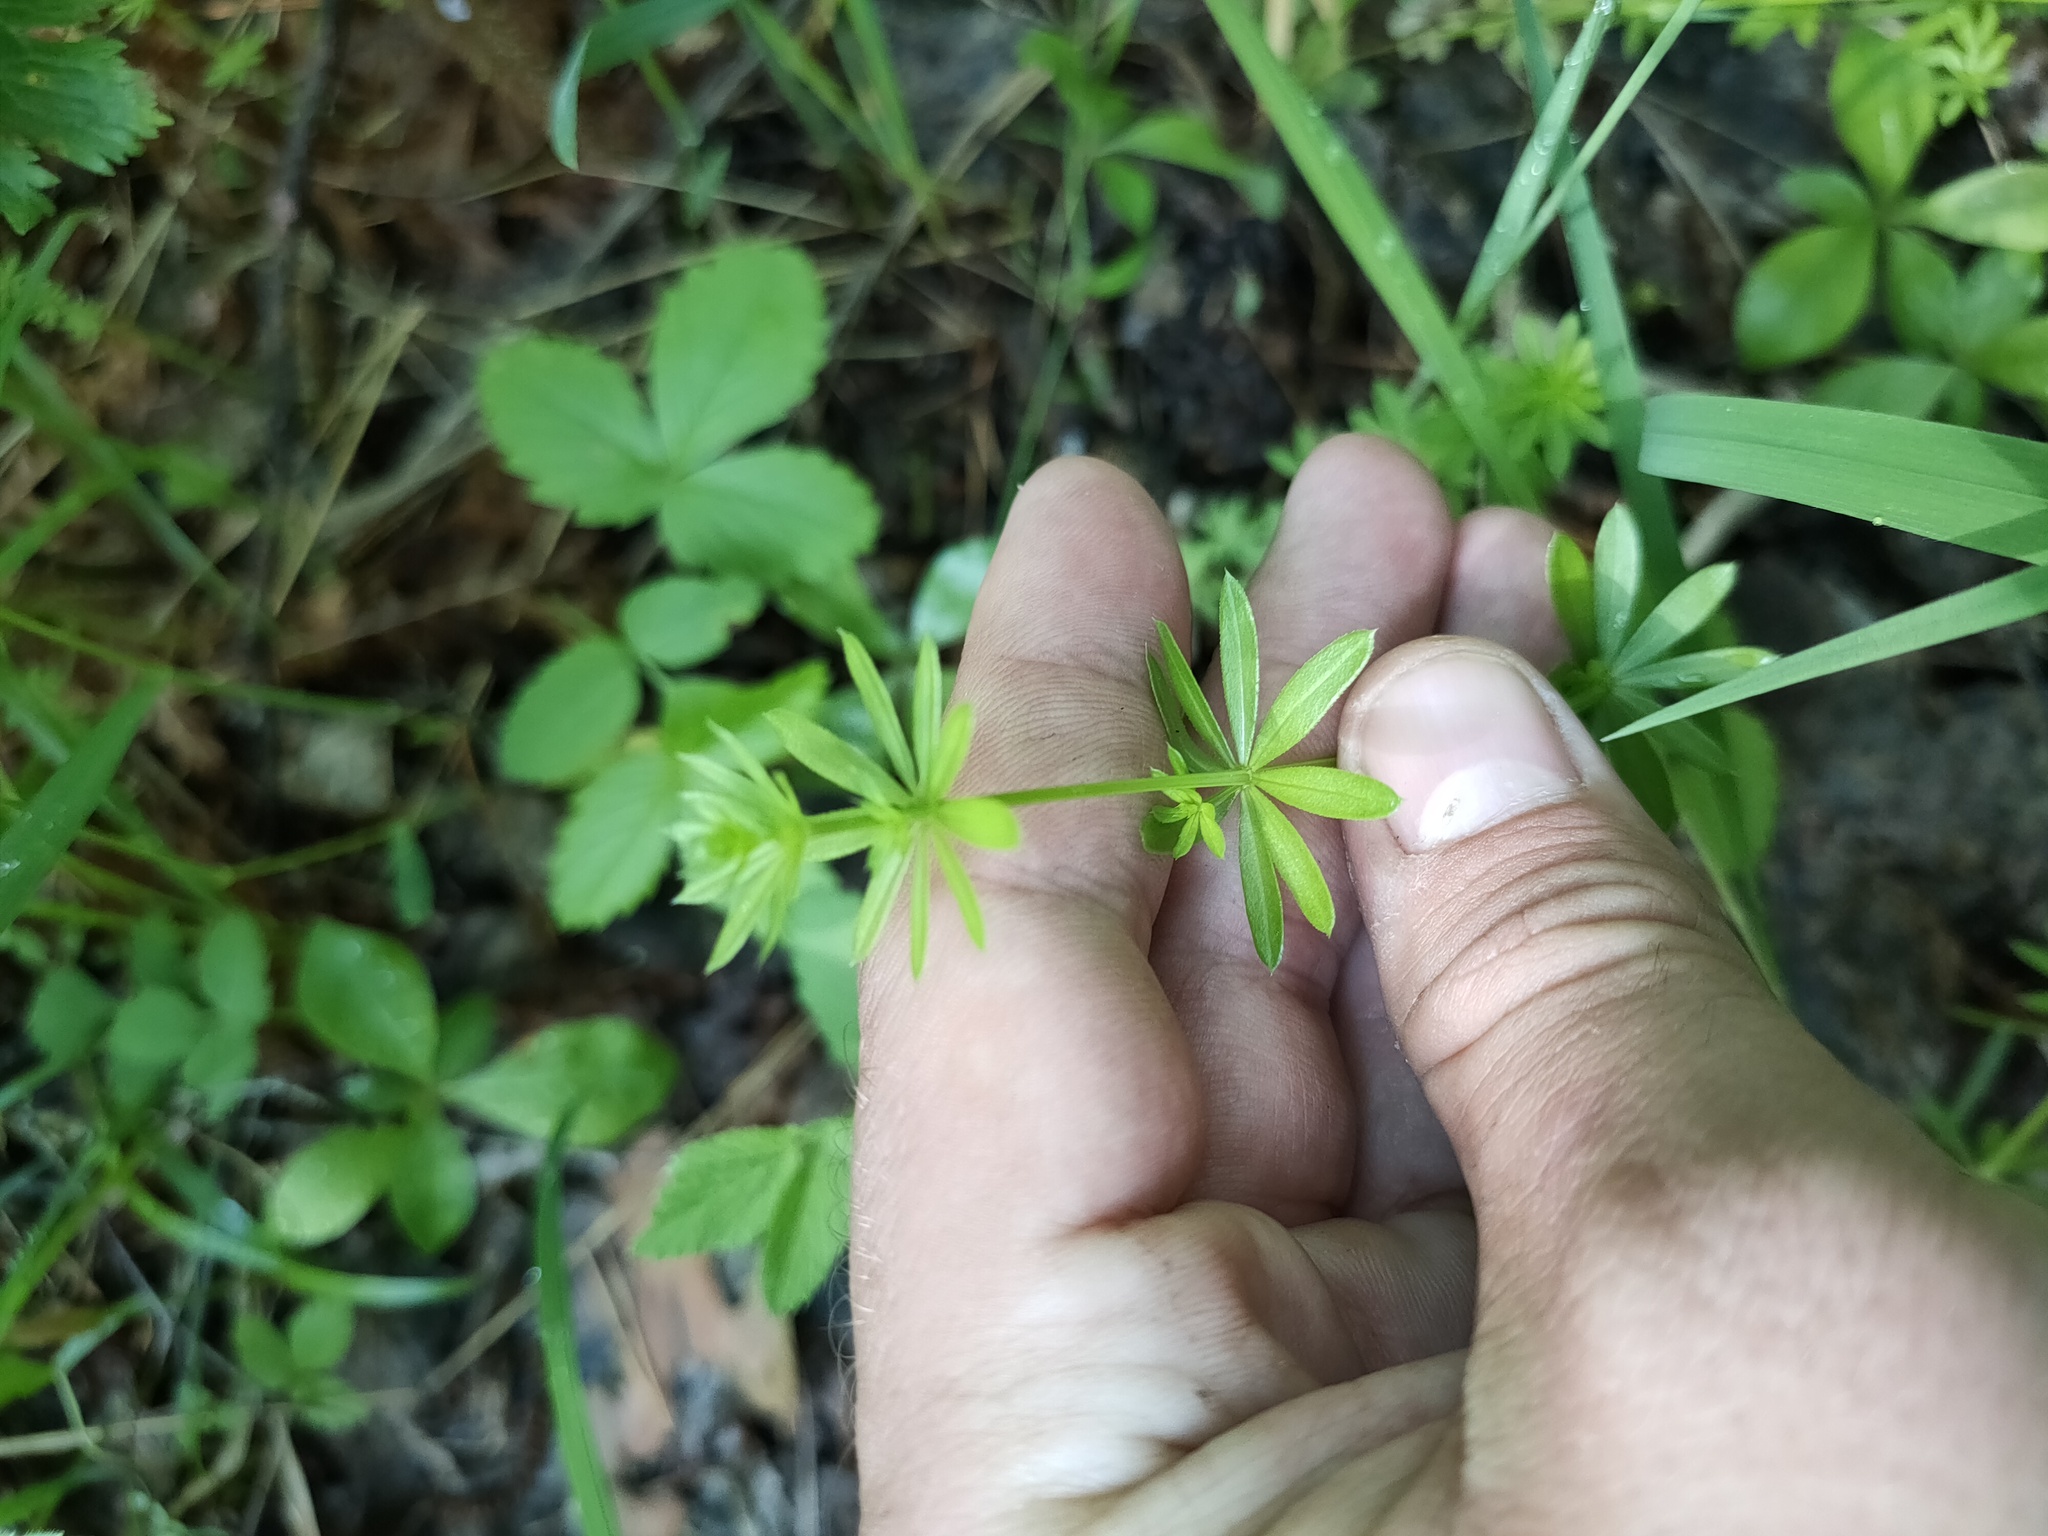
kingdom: Plantae
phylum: Tracheophyta
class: Magnoliopsida
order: Gentianales
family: Rubiaceae
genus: Galium
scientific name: Galium mollugo
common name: Hedge bedstraw
